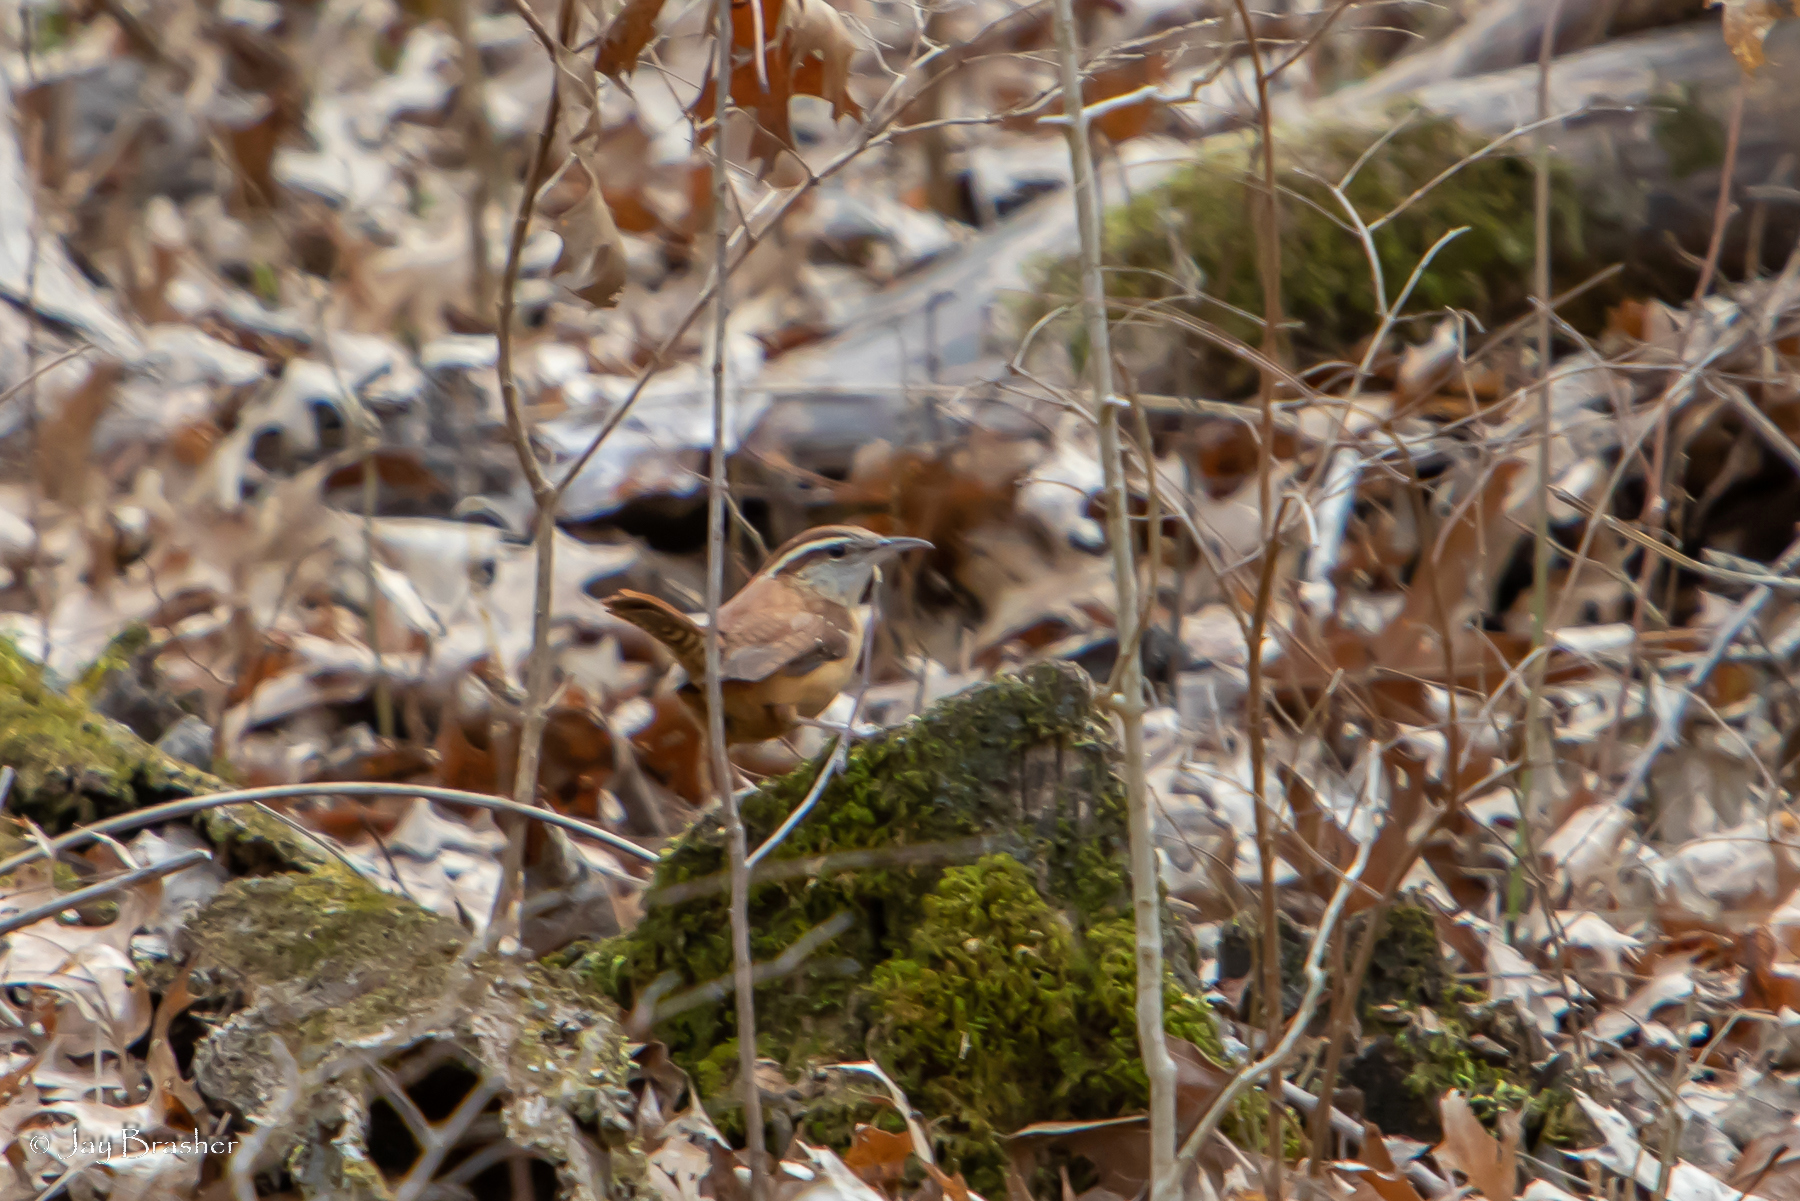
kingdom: Animalia
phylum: Chordata
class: Aves
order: Passeriformes
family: Troglodytidae
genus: Thryothorus
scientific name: Thryothorus ludovicianus
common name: Carolina wren
